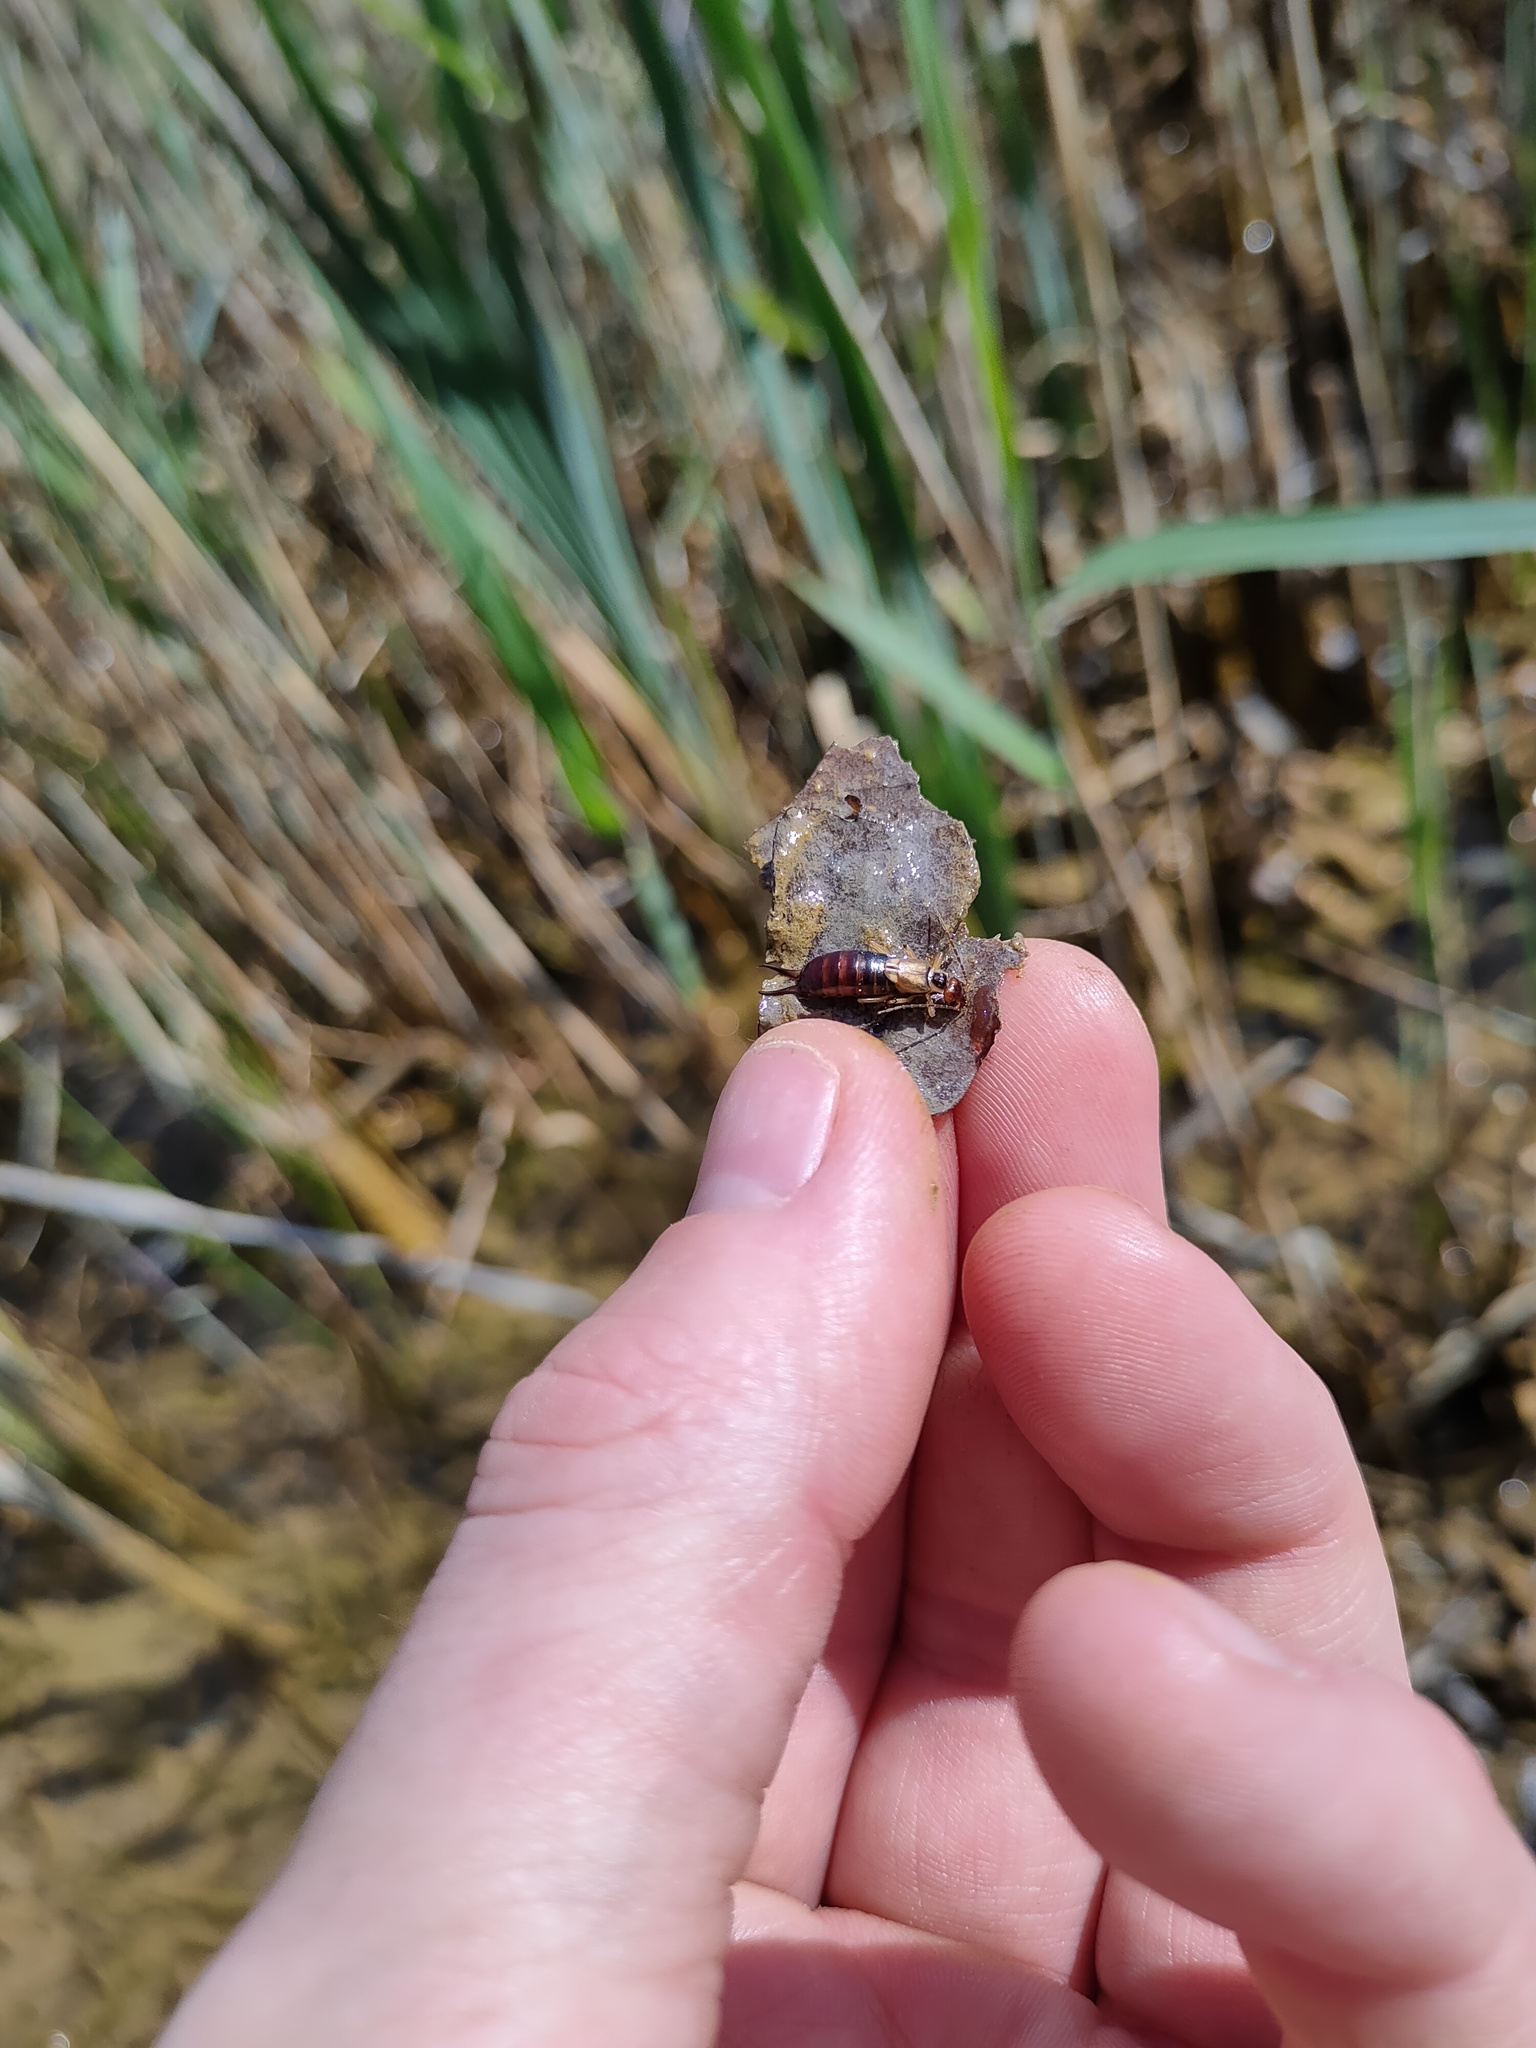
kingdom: Animalia
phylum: Arthropoda
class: Insecta
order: Dermaptera
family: Forficulidae
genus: Forficula
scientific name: Forficula
